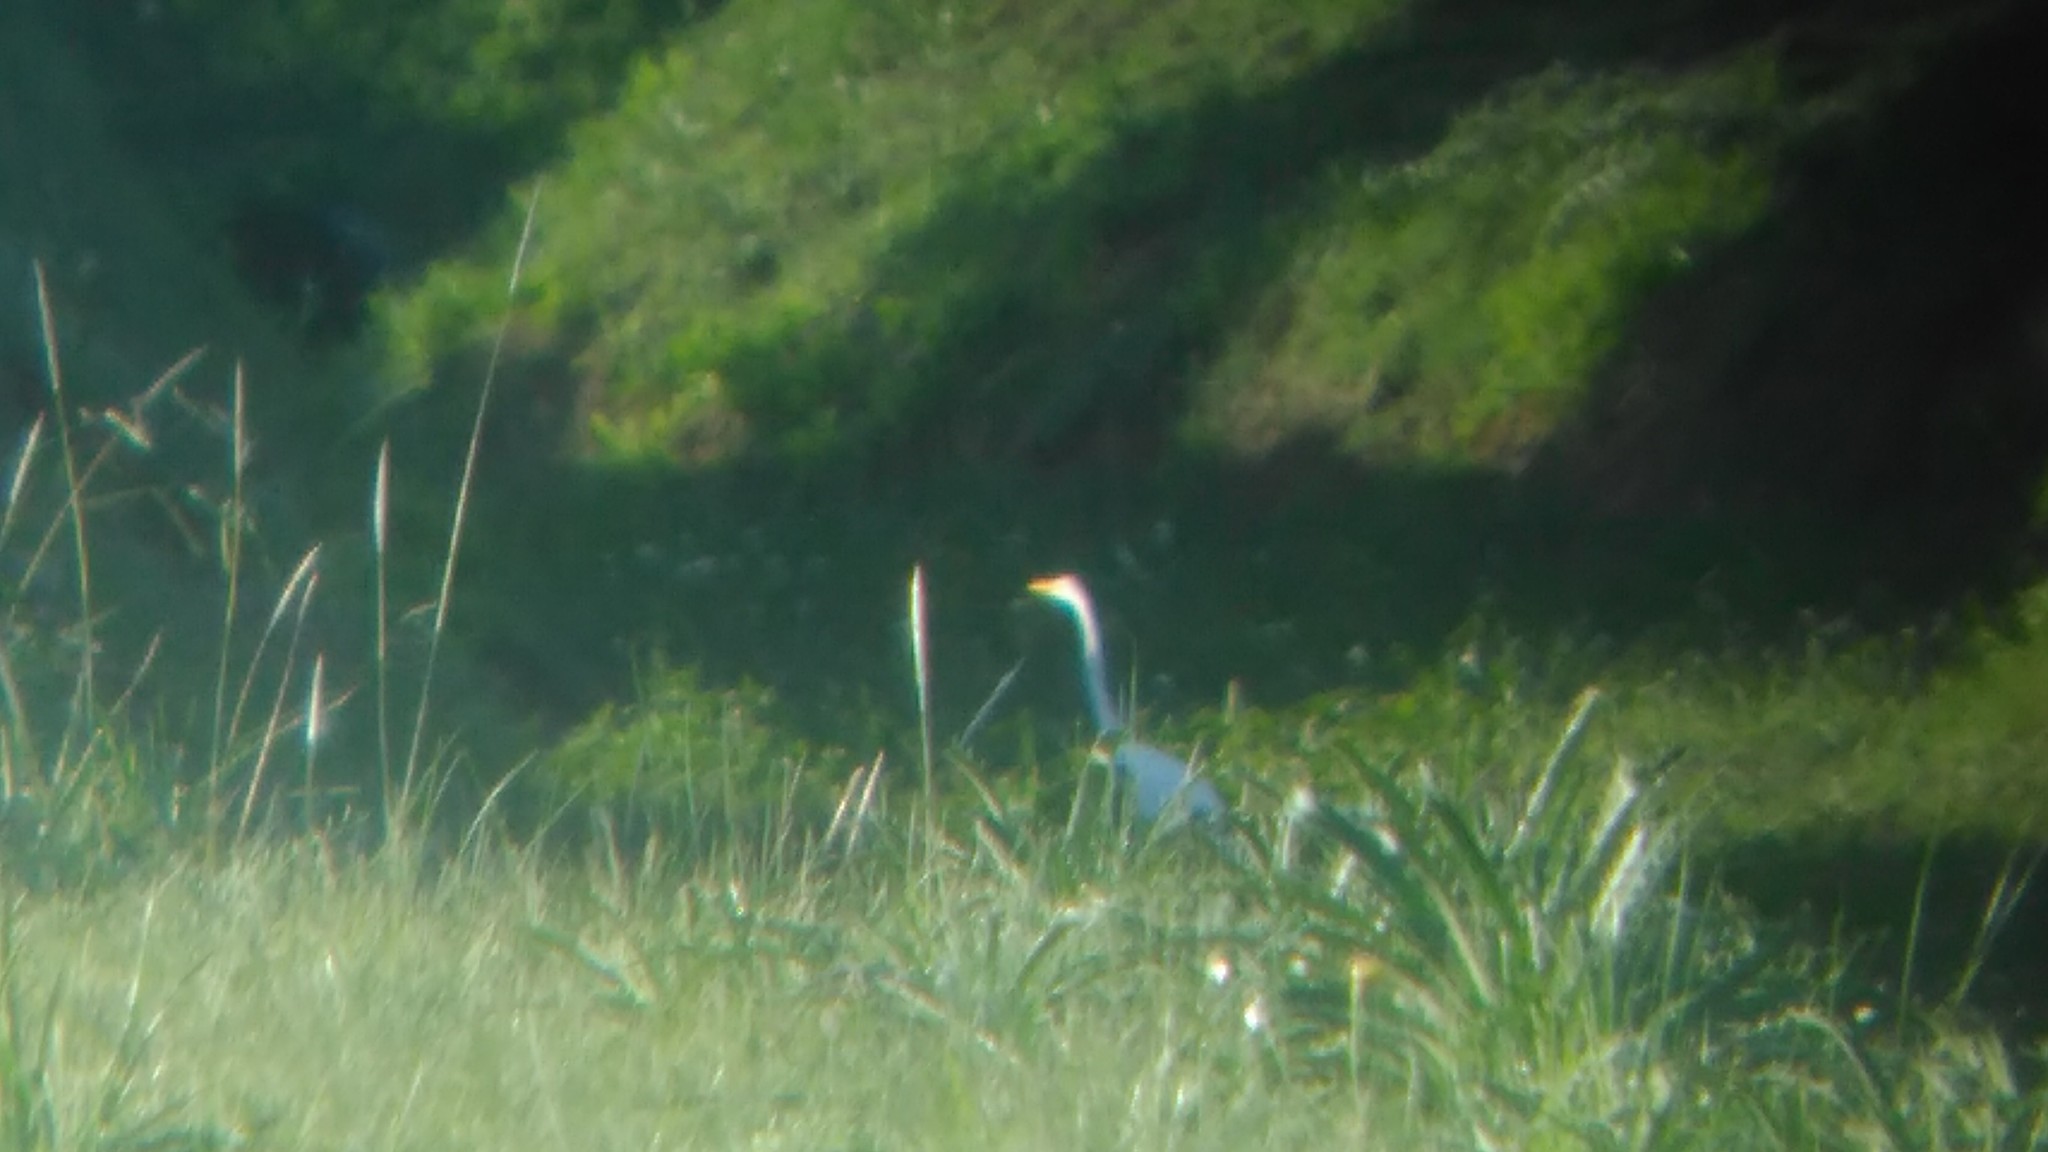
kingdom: Animalia
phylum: Chordata
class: Aves
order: Pelecaniformes
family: Ardeidae
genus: Ardea
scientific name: Ardea alba
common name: Great egret
